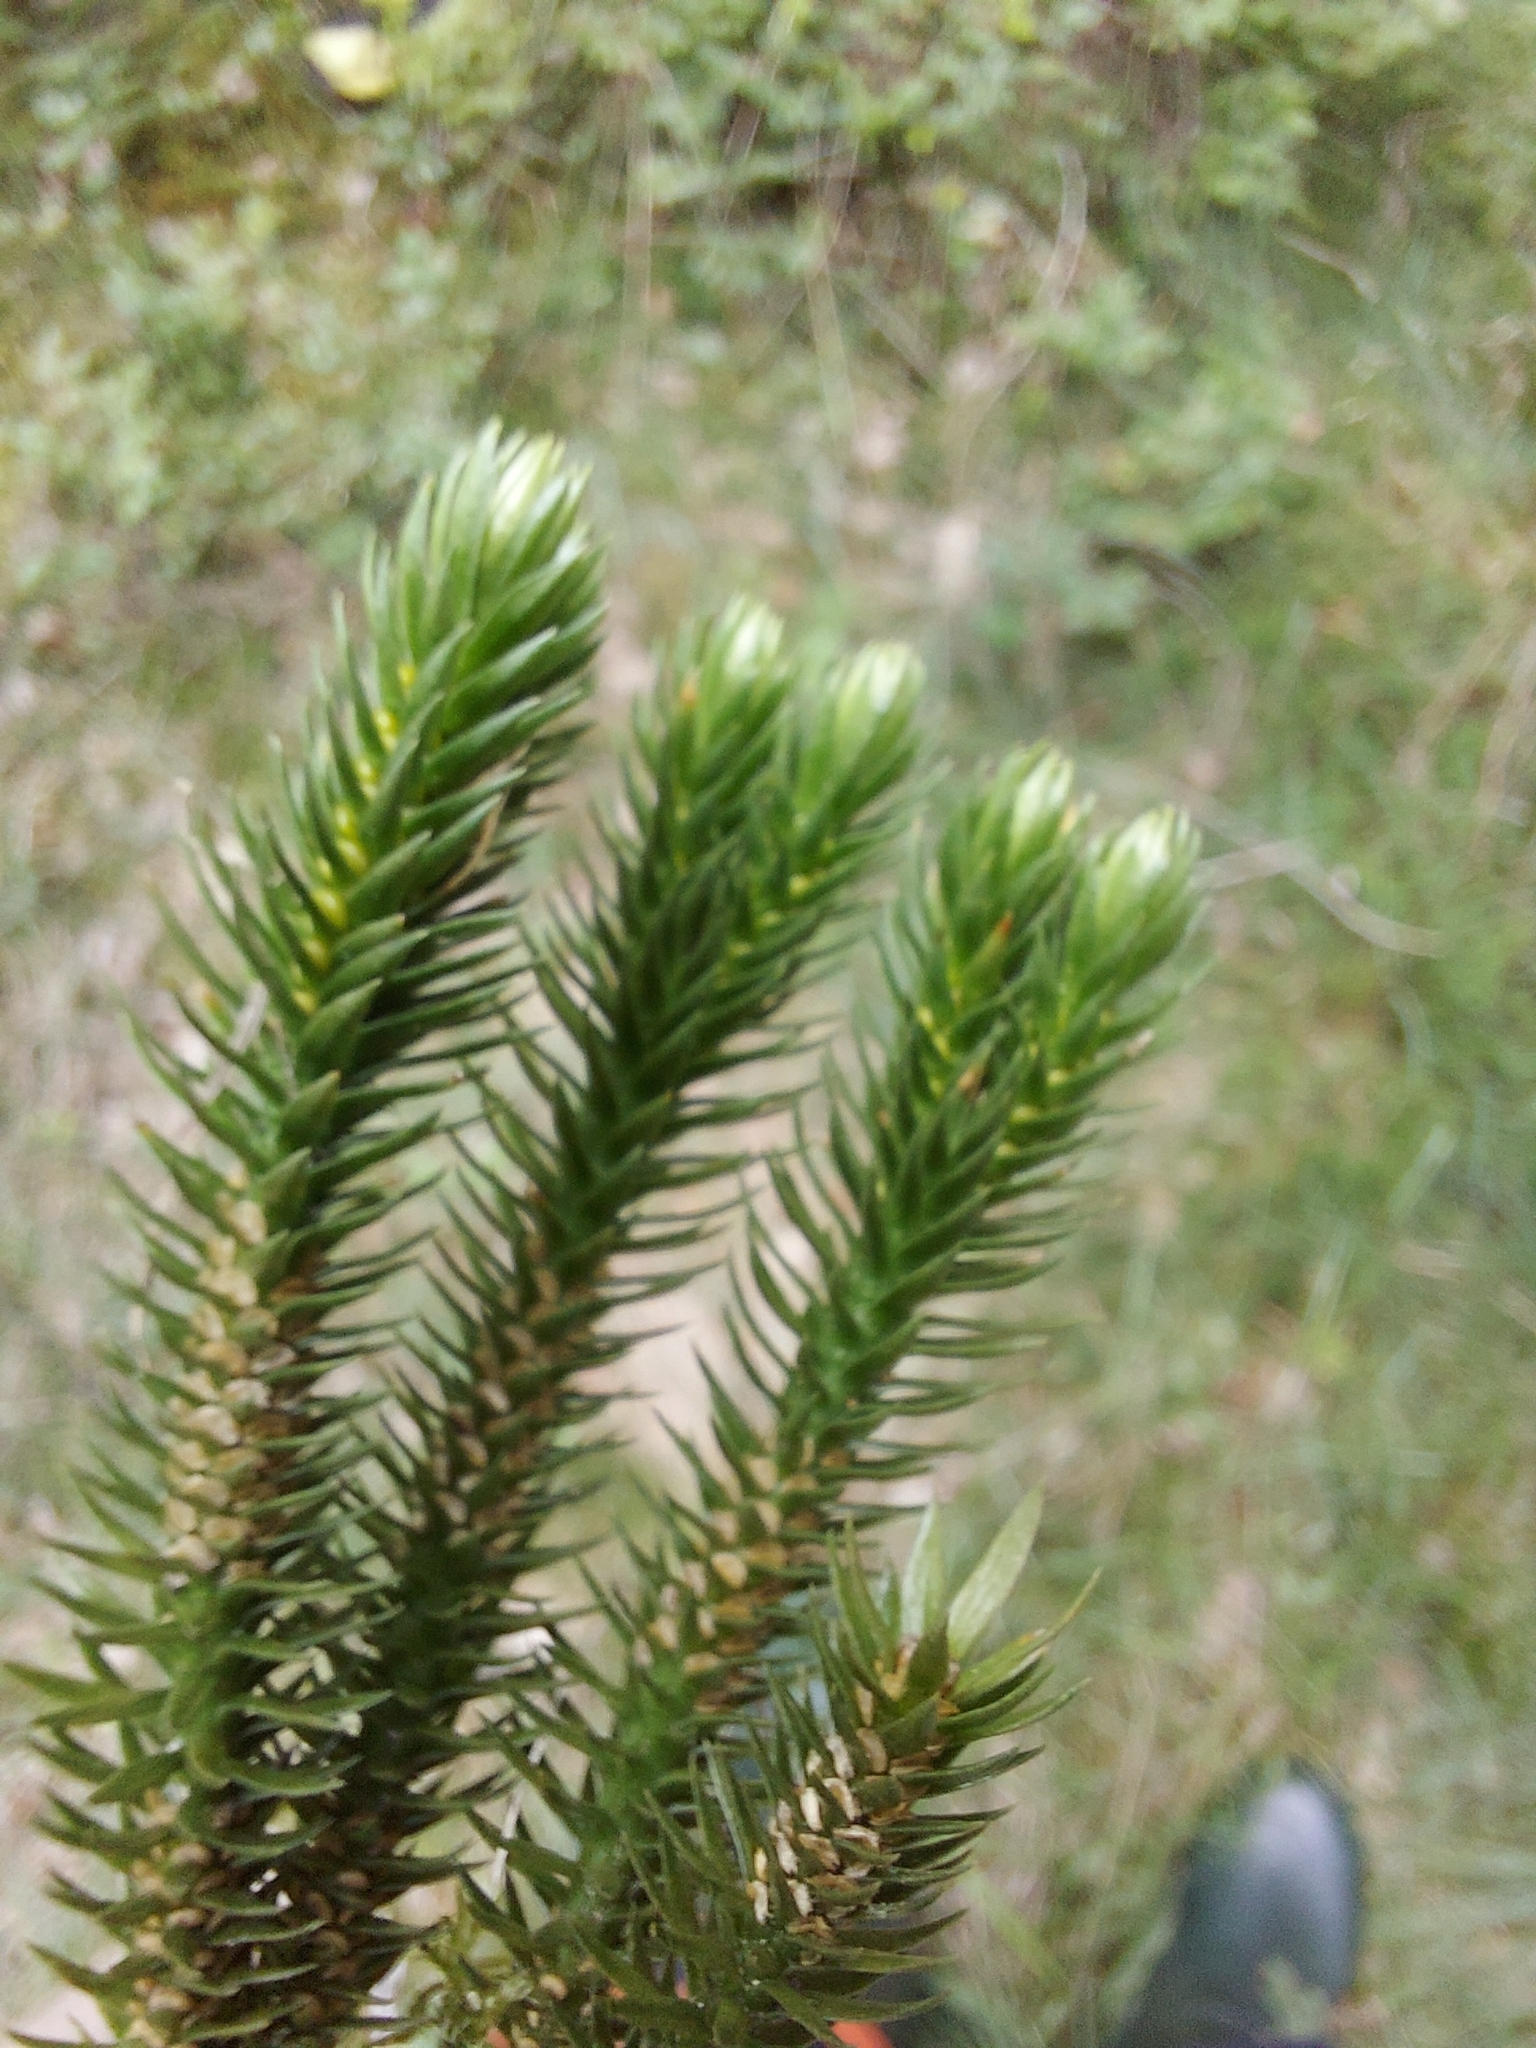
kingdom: Plantae
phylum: Tracheophyta
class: Lycopodiopsida
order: Lycopodiales
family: Lycopodiaceae
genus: Huperzia
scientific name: Huperzia selago
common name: Northern firmoss
